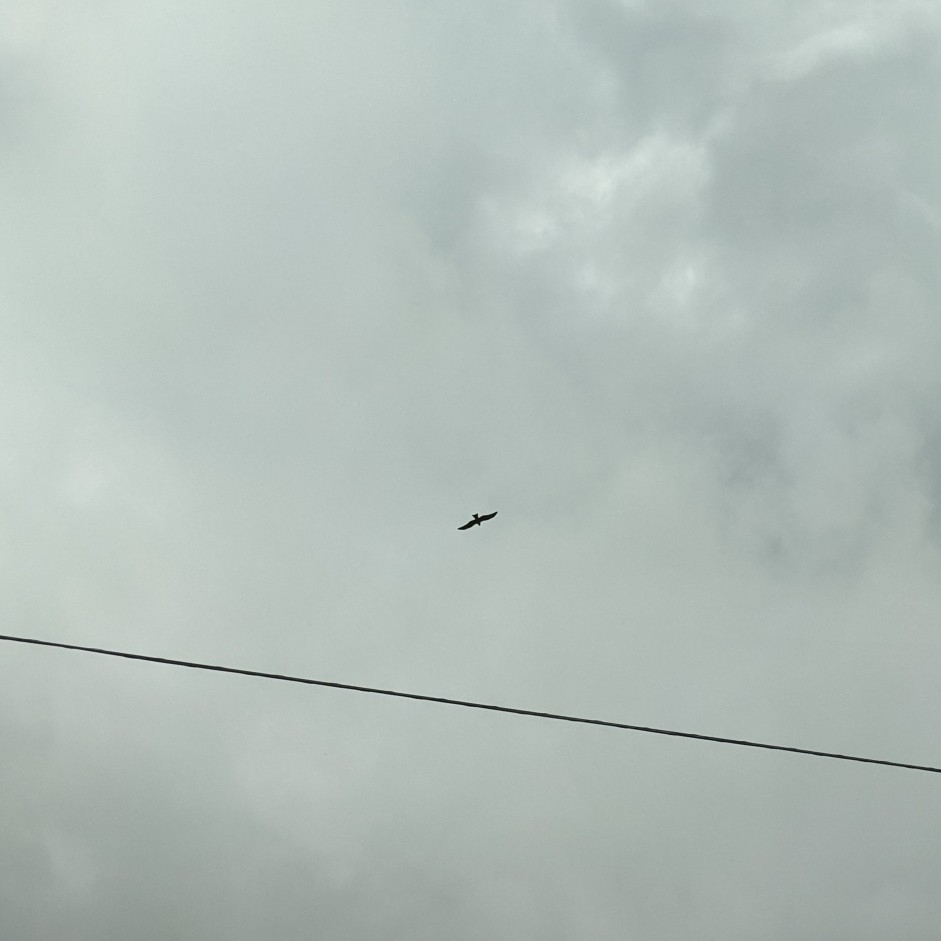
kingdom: Animalia
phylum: Chordata
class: Aves
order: Accipitriformes
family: Accipitridae
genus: Milvus
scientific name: Milvus migrans
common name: Black kite
